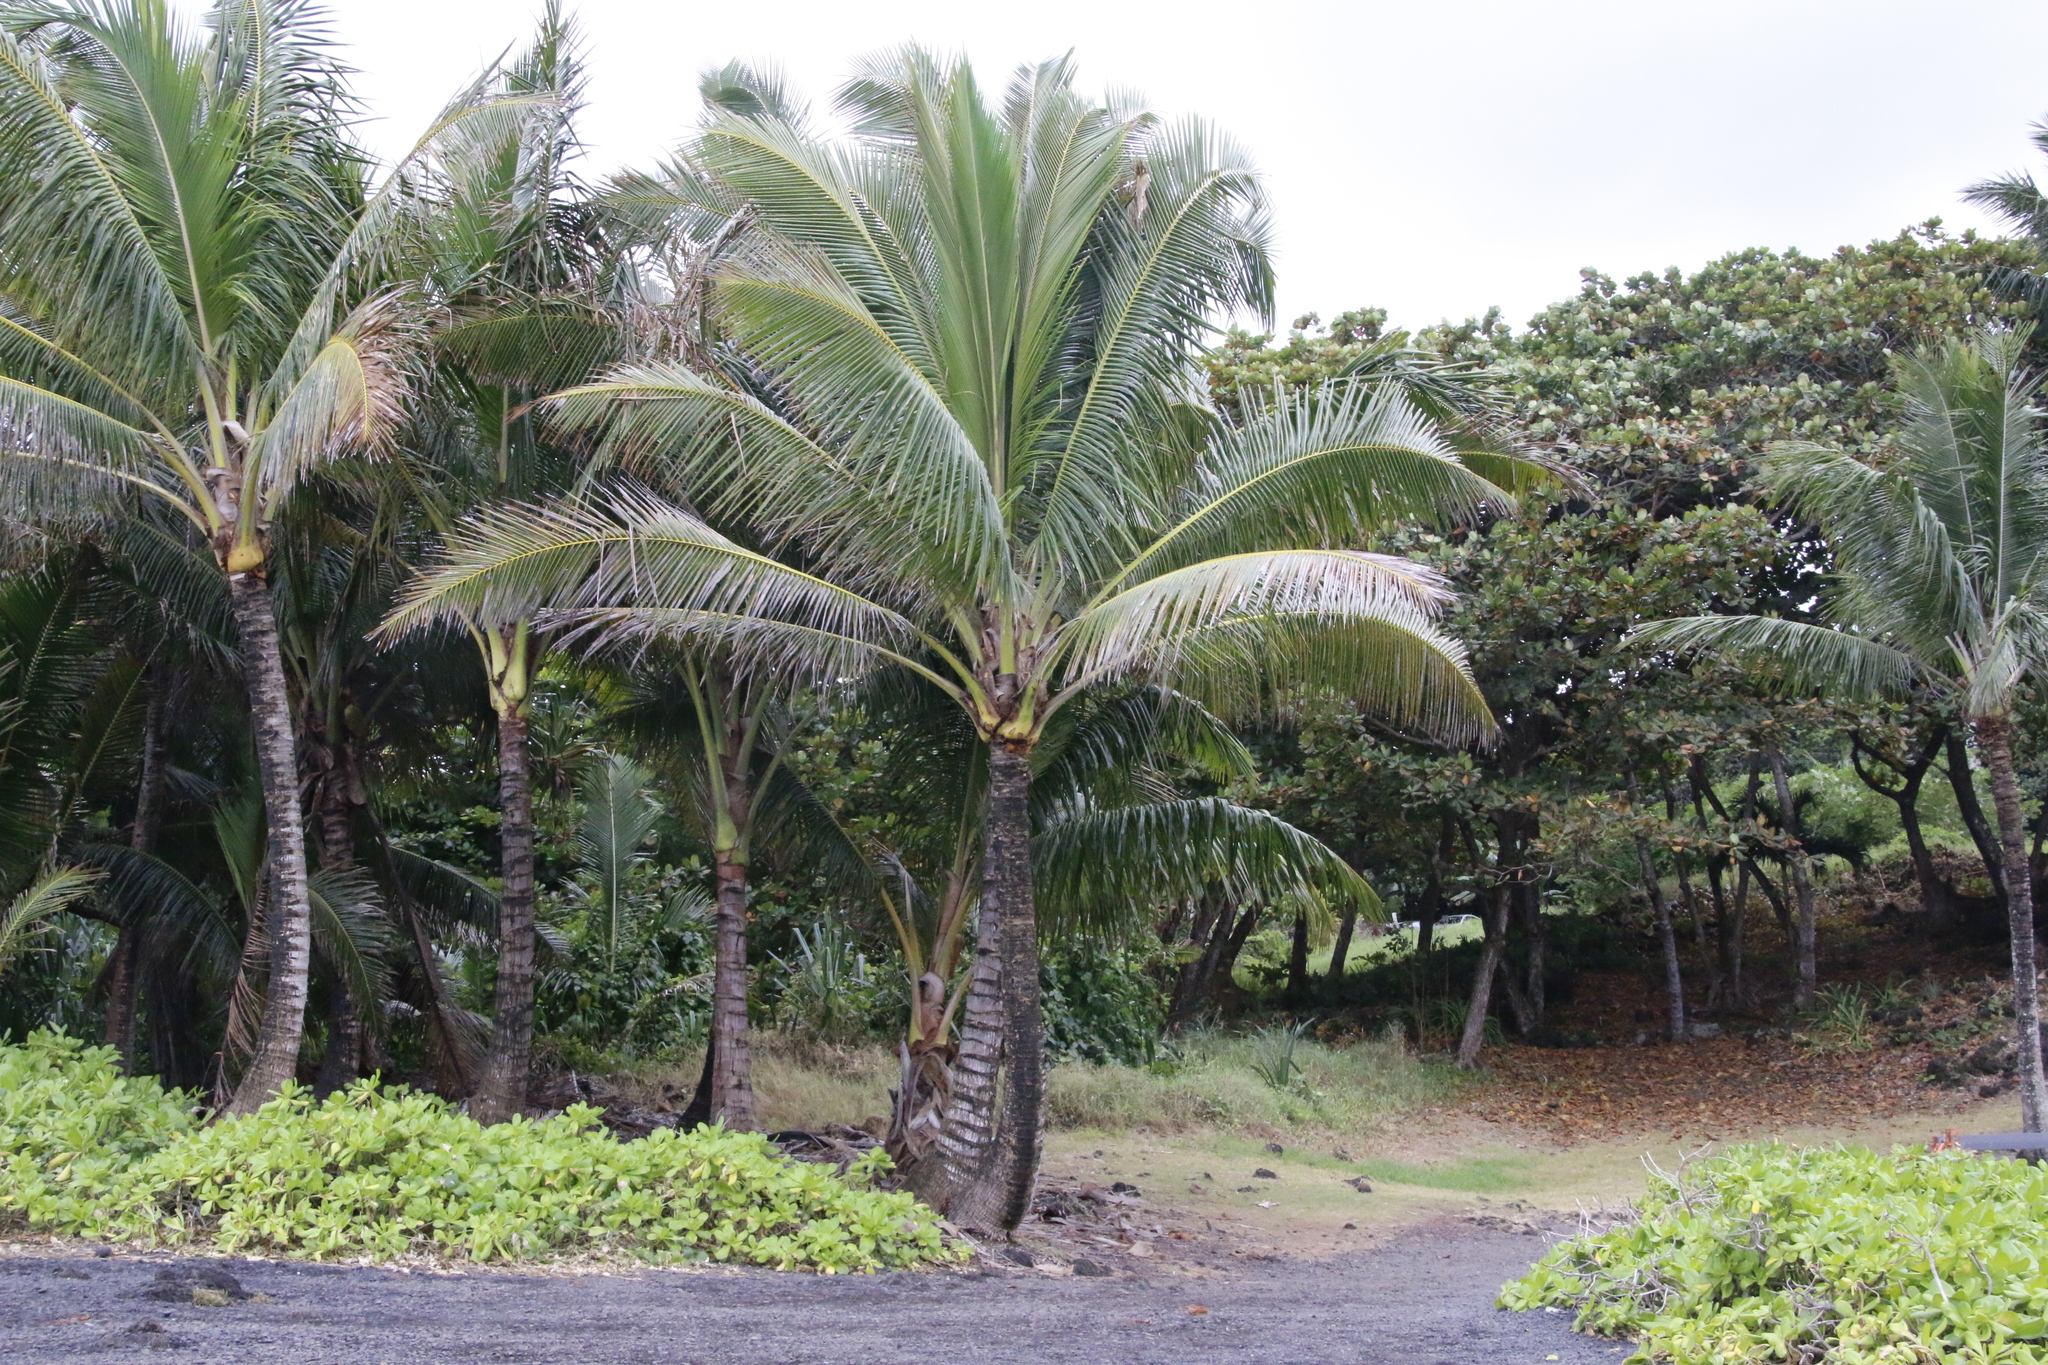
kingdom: Plantae
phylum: Tracheophyta
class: Liliopsida
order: Arecales
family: Arecaceae
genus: Cocos
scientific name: Cocos nucifera
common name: Coconut palm
